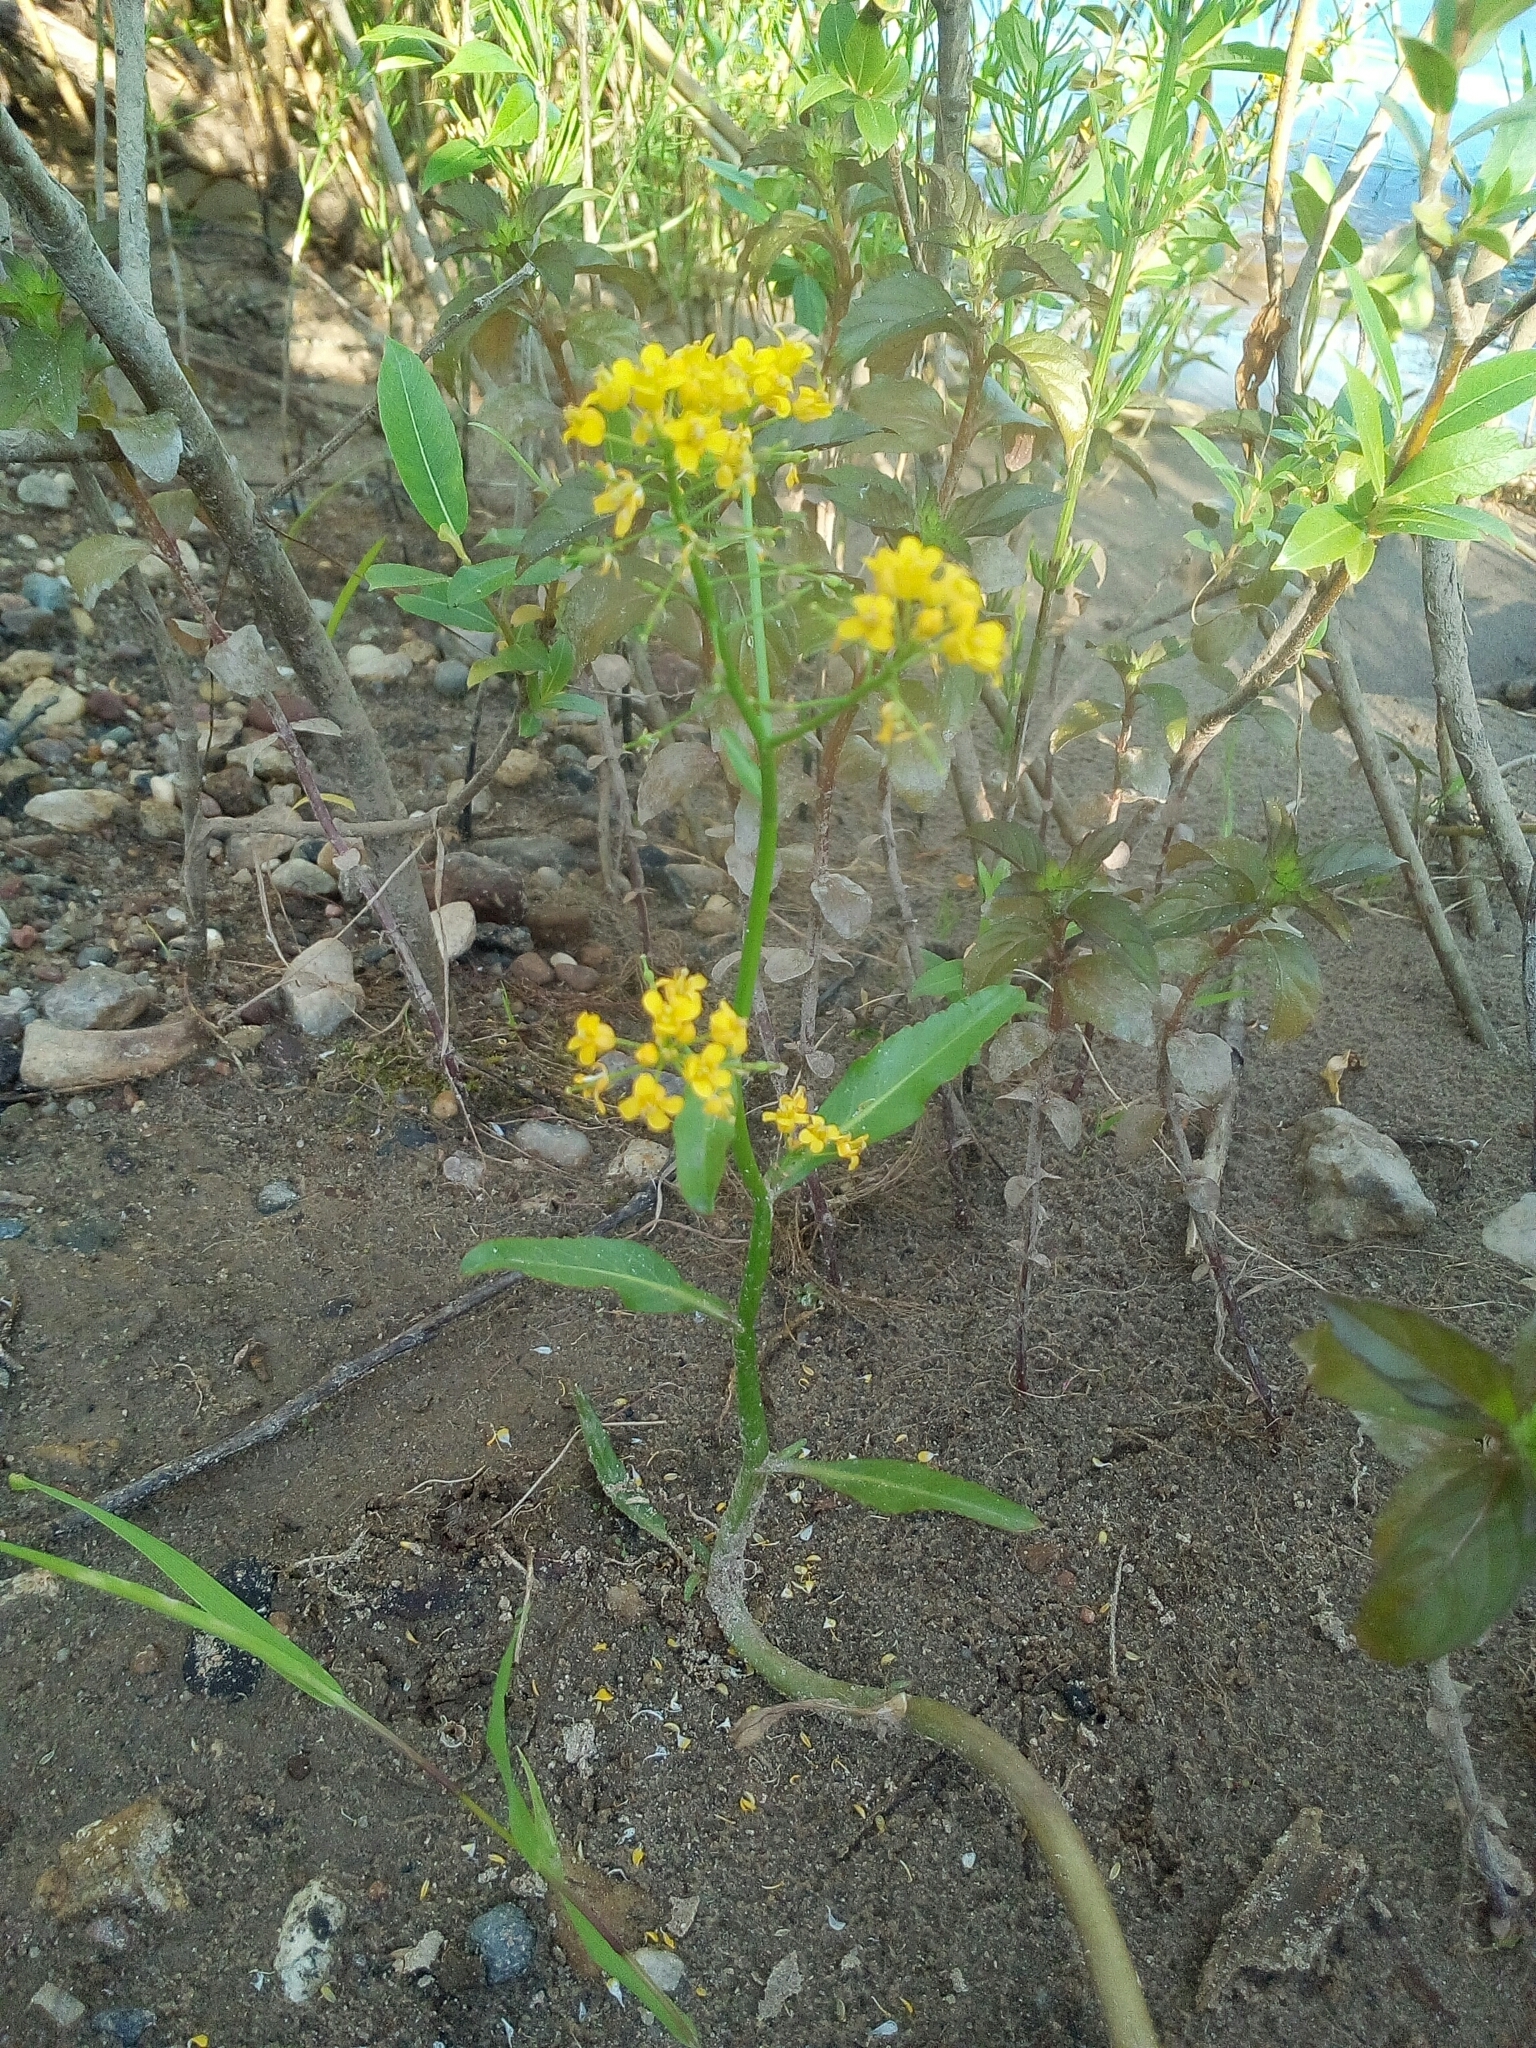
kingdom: Plantae
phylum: Tracheophyta
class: Magnoliopsida
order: Brassicales
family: Brassicaceae
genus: Rorippa
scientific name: Rorippa amphibia
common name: Great yellow-cress
